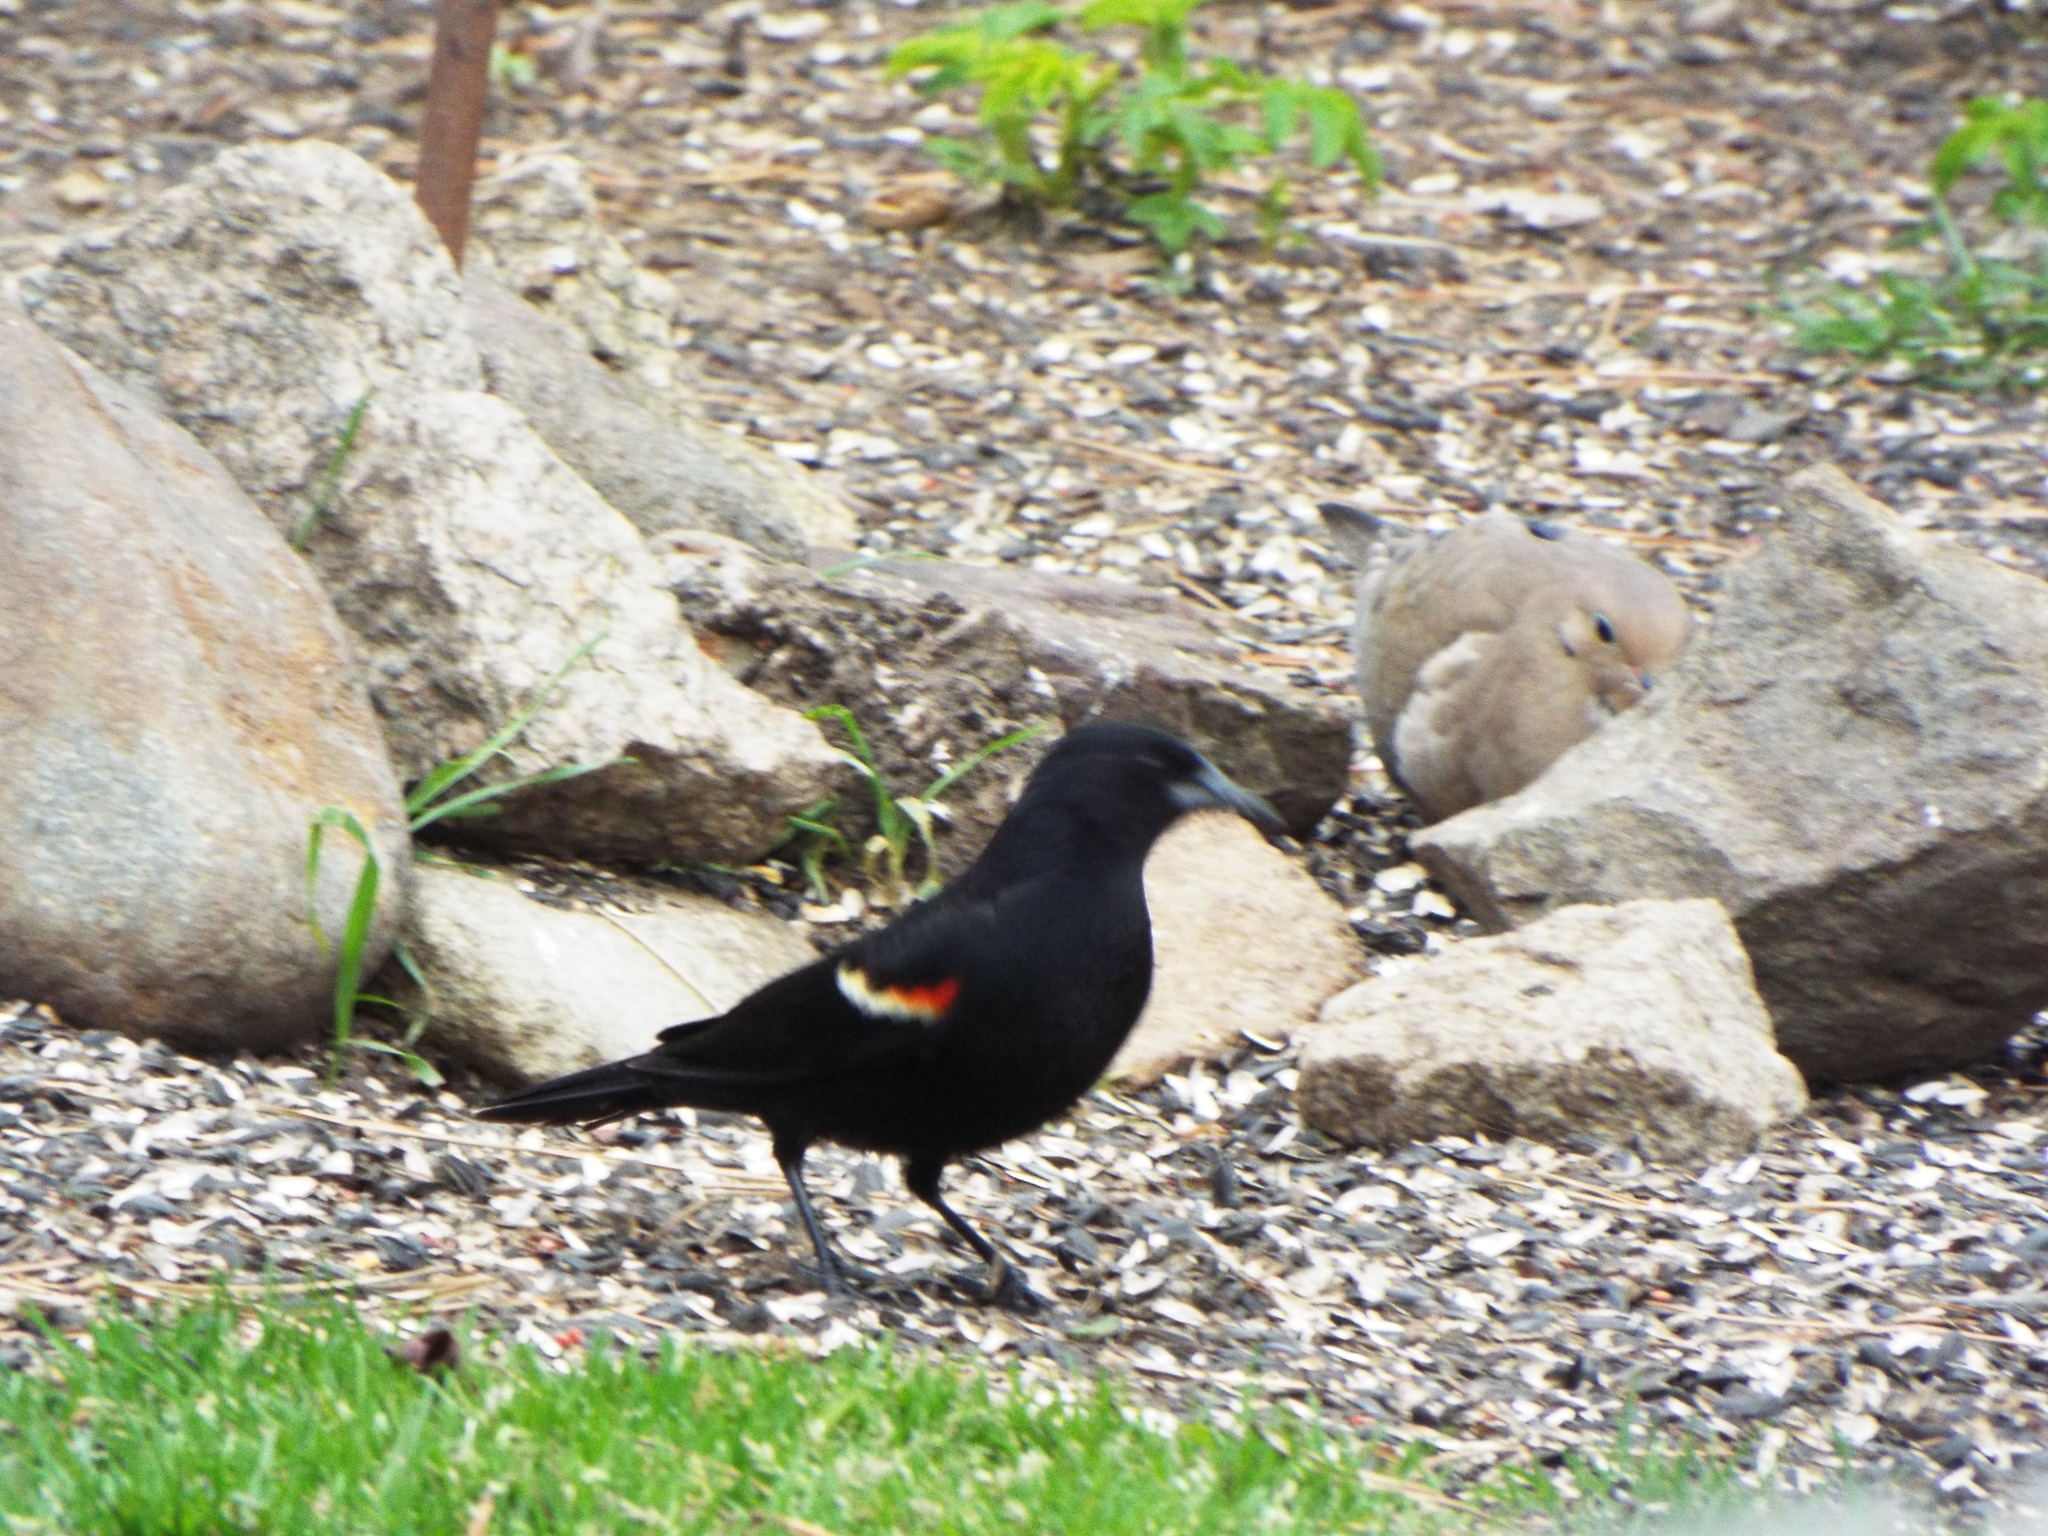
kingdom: Animalia
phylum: Chordata
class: Aves
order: Passeriformes
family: Icteridae
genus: Agelaius
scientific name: Agelaius phoeniceus
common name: Red-winged blackbird
